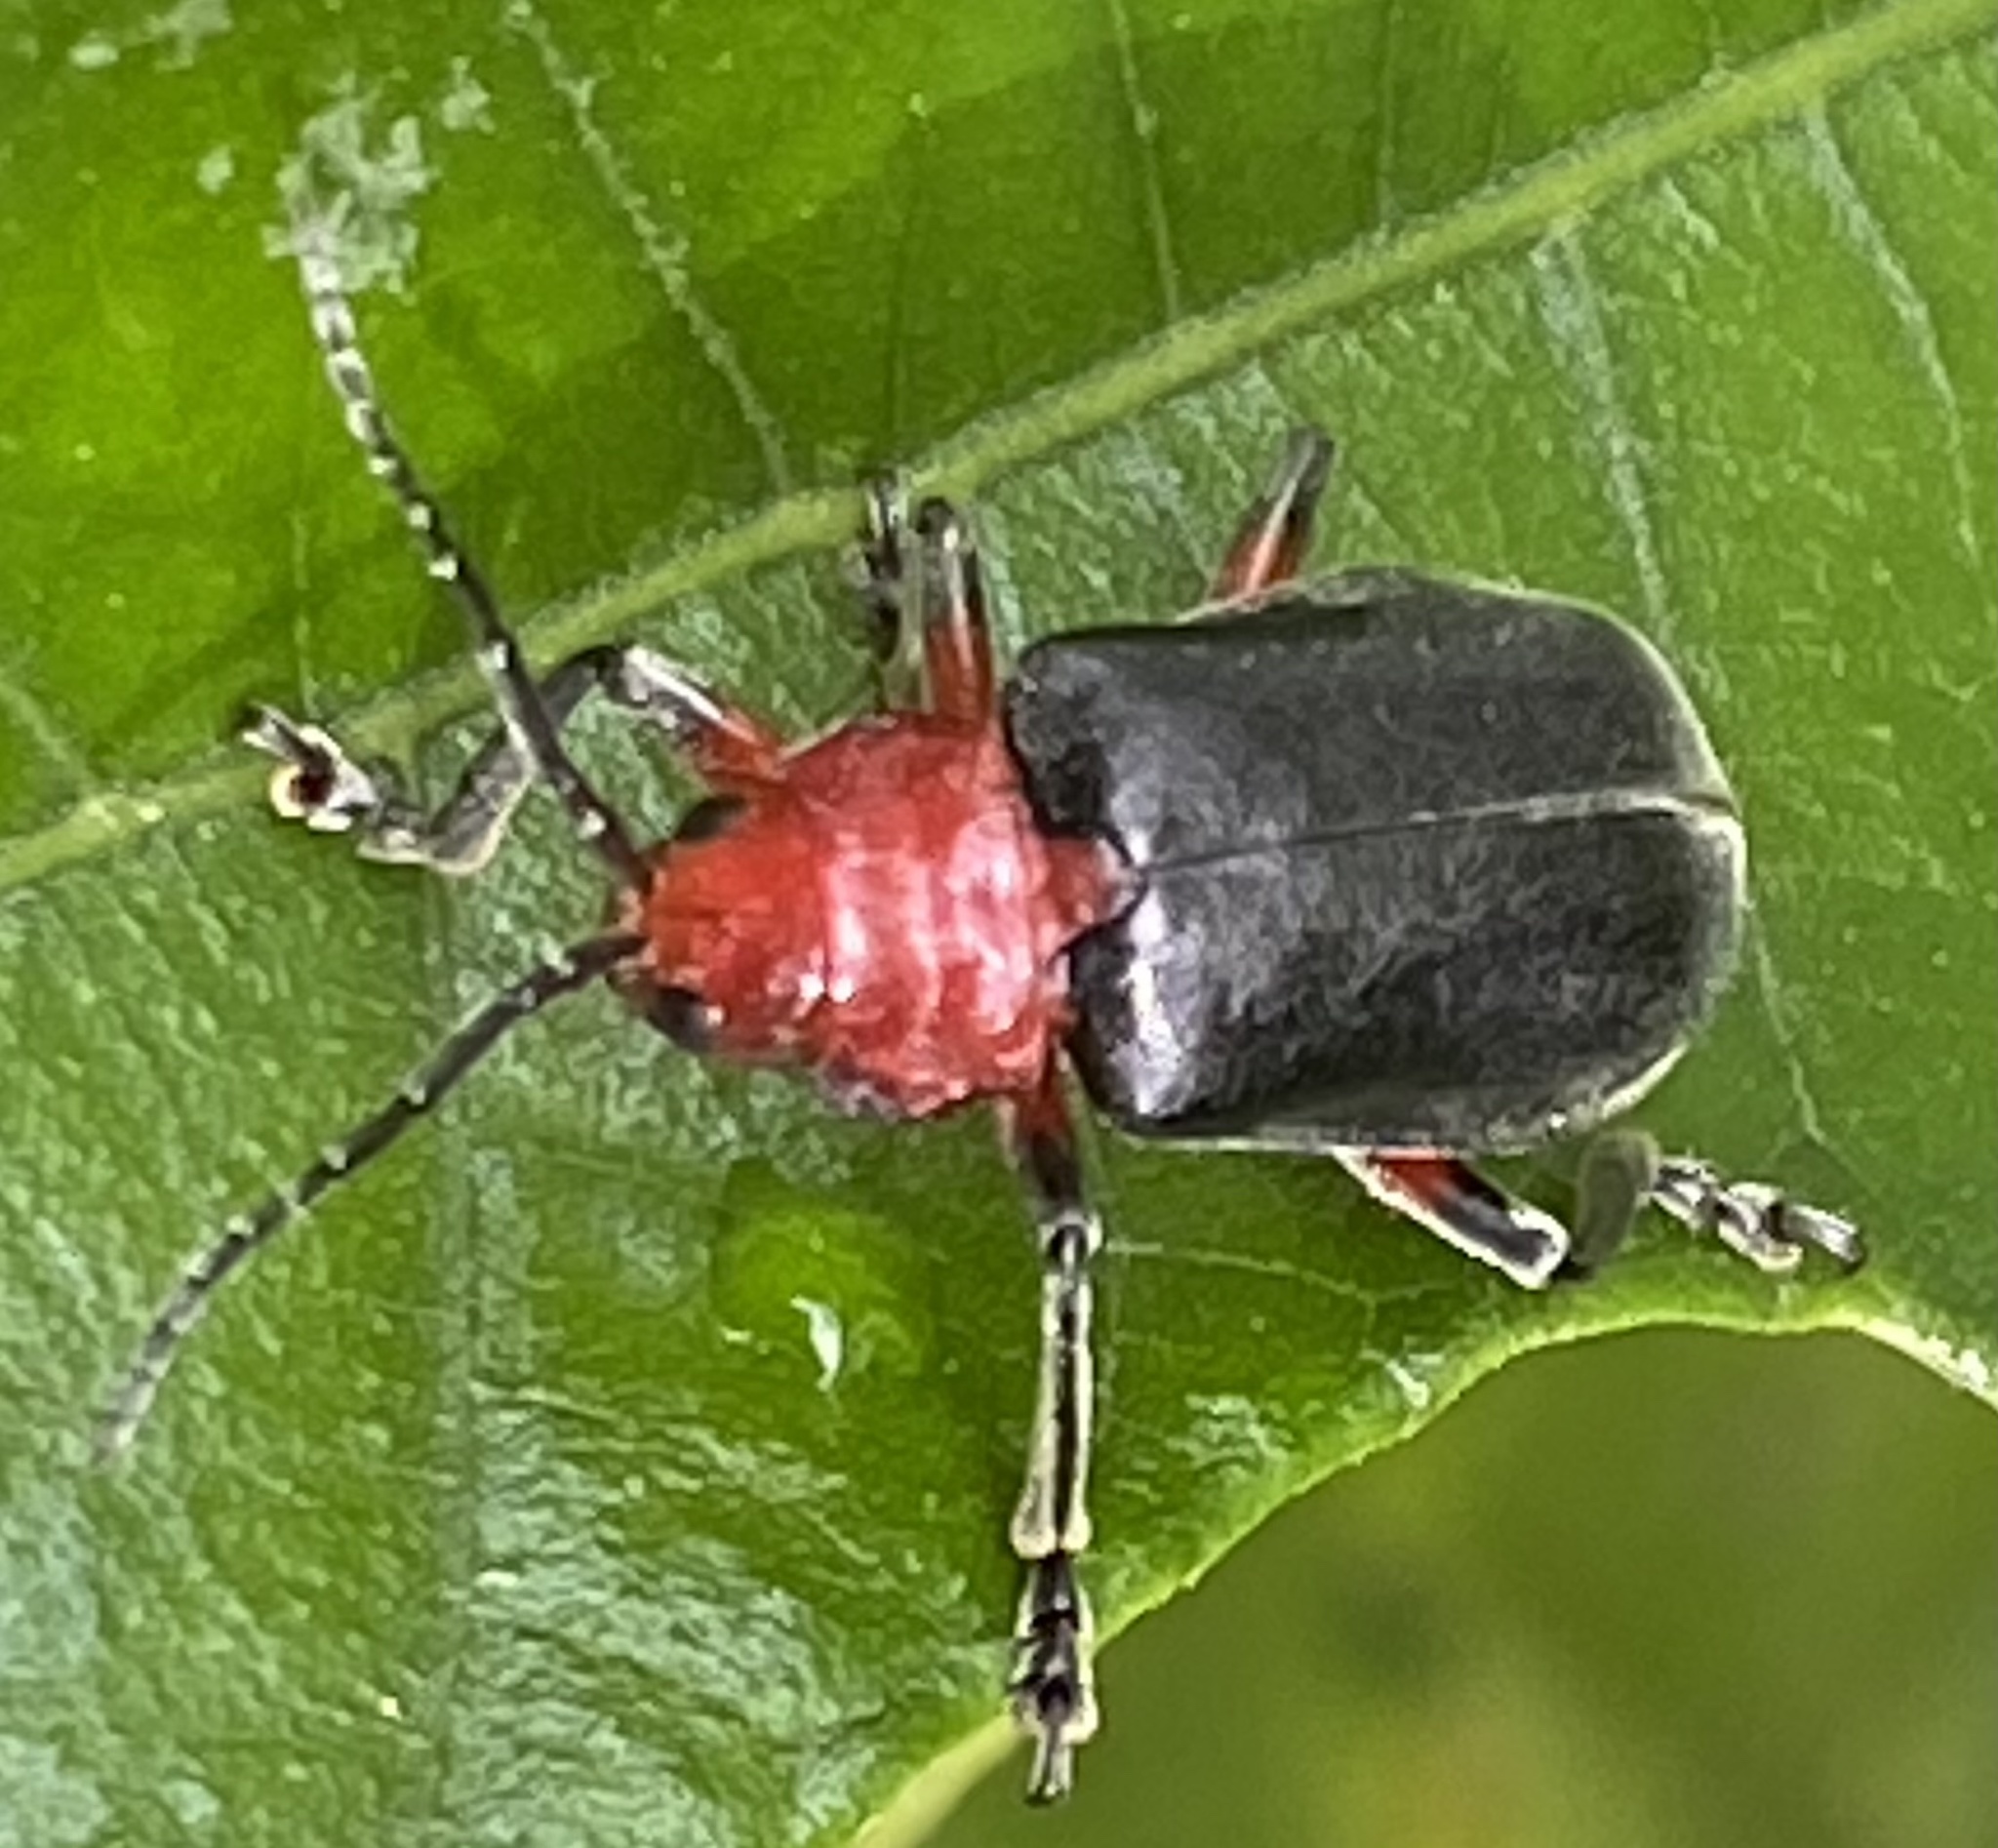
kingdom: Animalia
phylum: Arthropoda
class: Insecta
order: Coleoptera
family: Chrysomelidae
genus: Coelomera
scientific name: Coelomera
